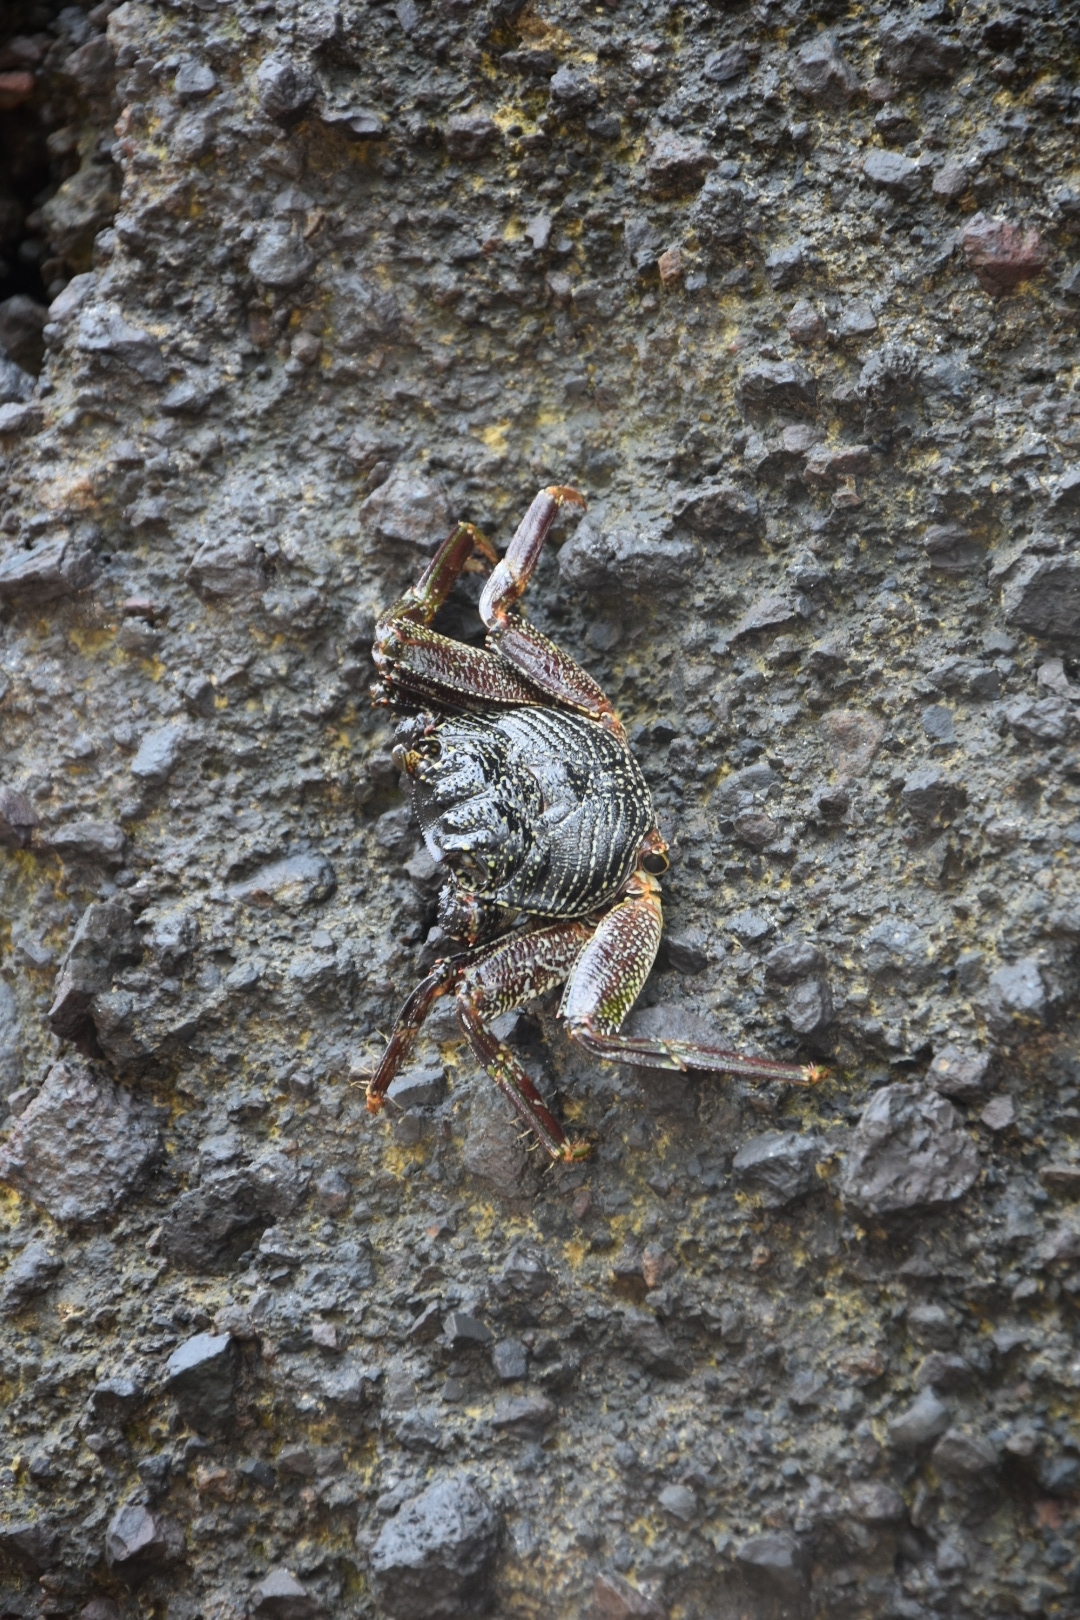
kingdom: Animalia
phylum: Arthropoda
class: Malacostraca
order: Decapoda
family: Grapsidae
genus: Grapsus
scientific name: Grapsus tenuicrustatus
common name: Natal lightfoot crab
